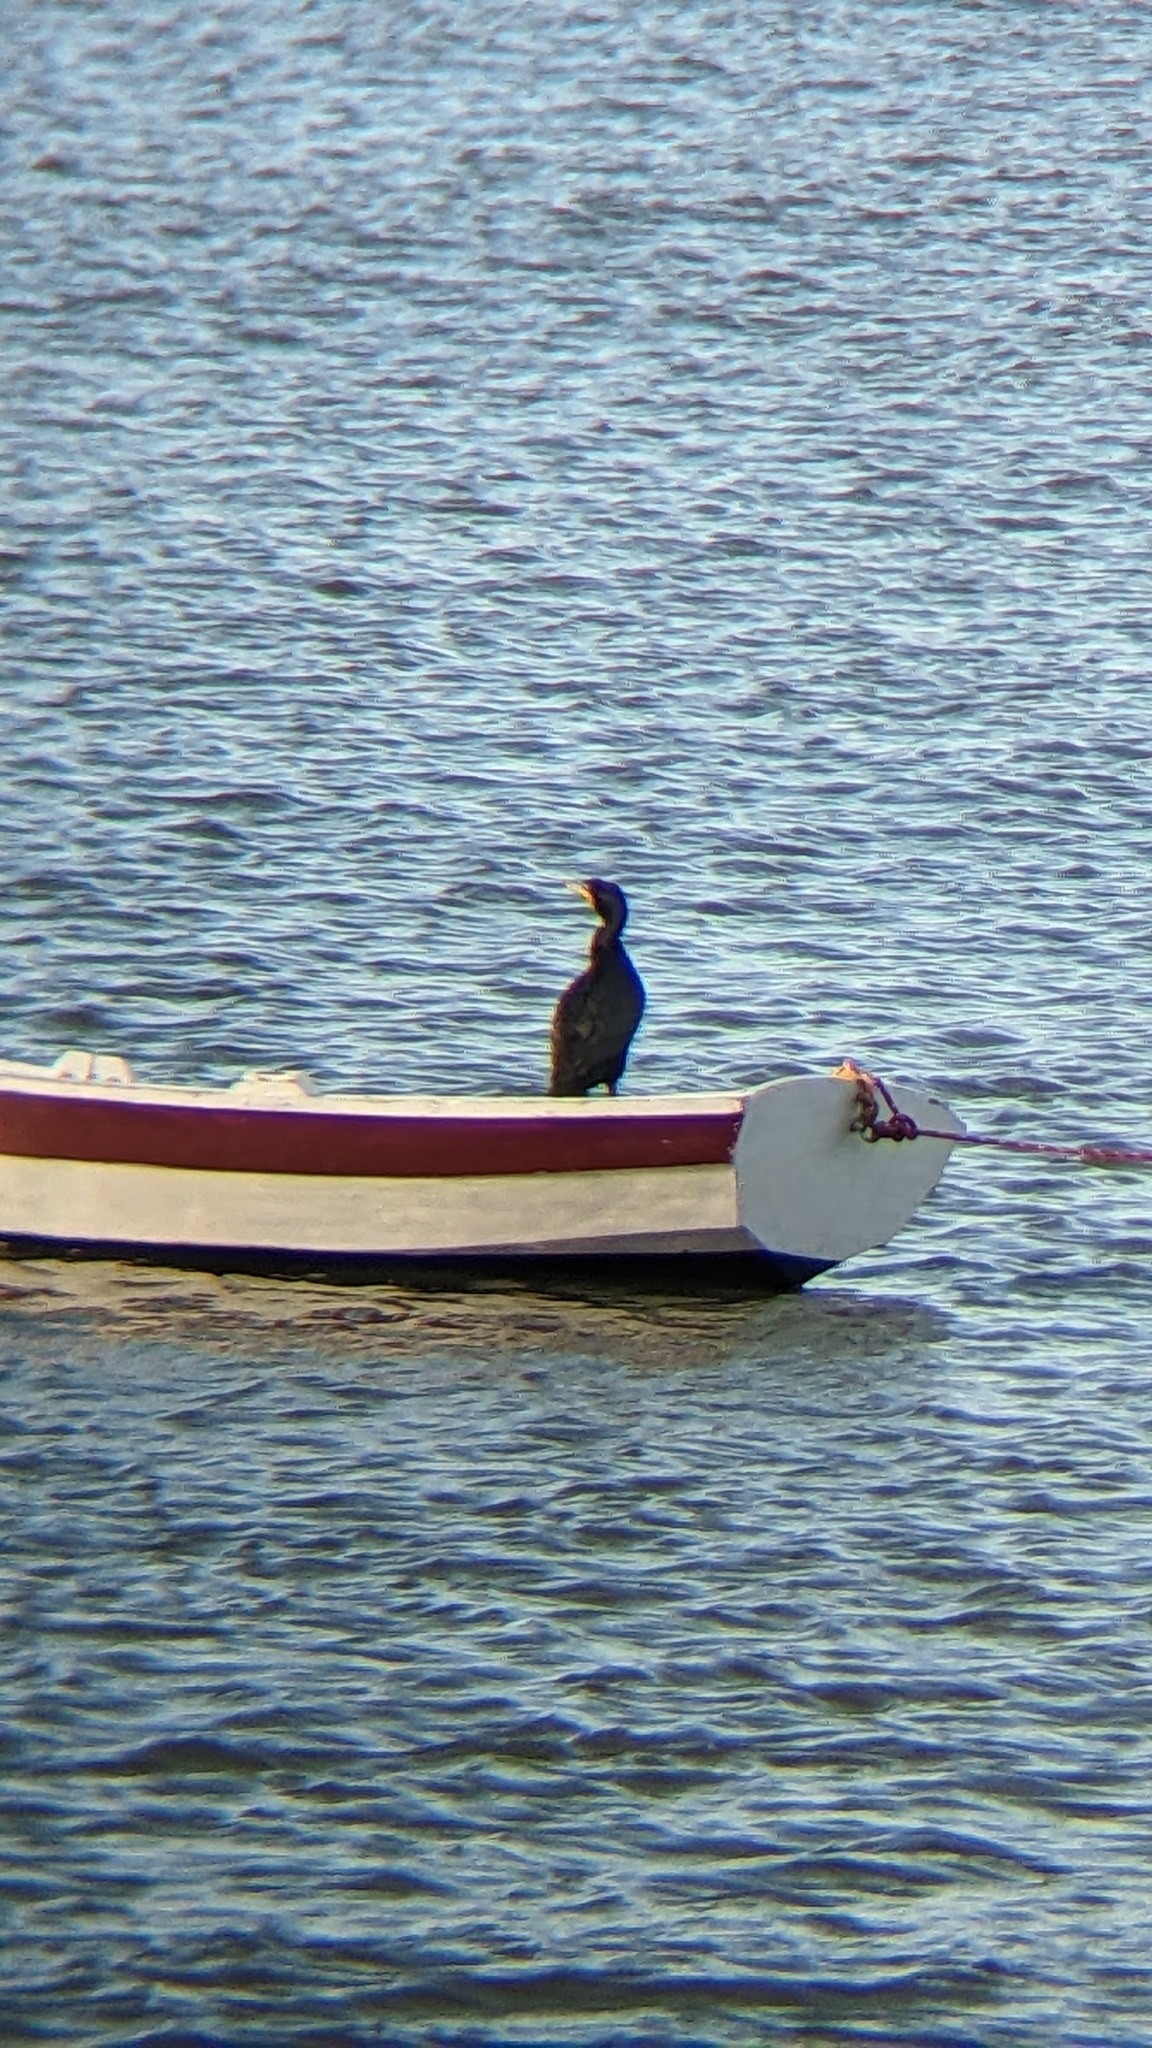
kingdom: Animalia
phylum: Chordata
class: Aves
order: Suliformes
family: Phalacrocoracidae
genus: Phalacrocorax
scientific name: Phalacrocorax auritus
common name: Double-crested cormorant
